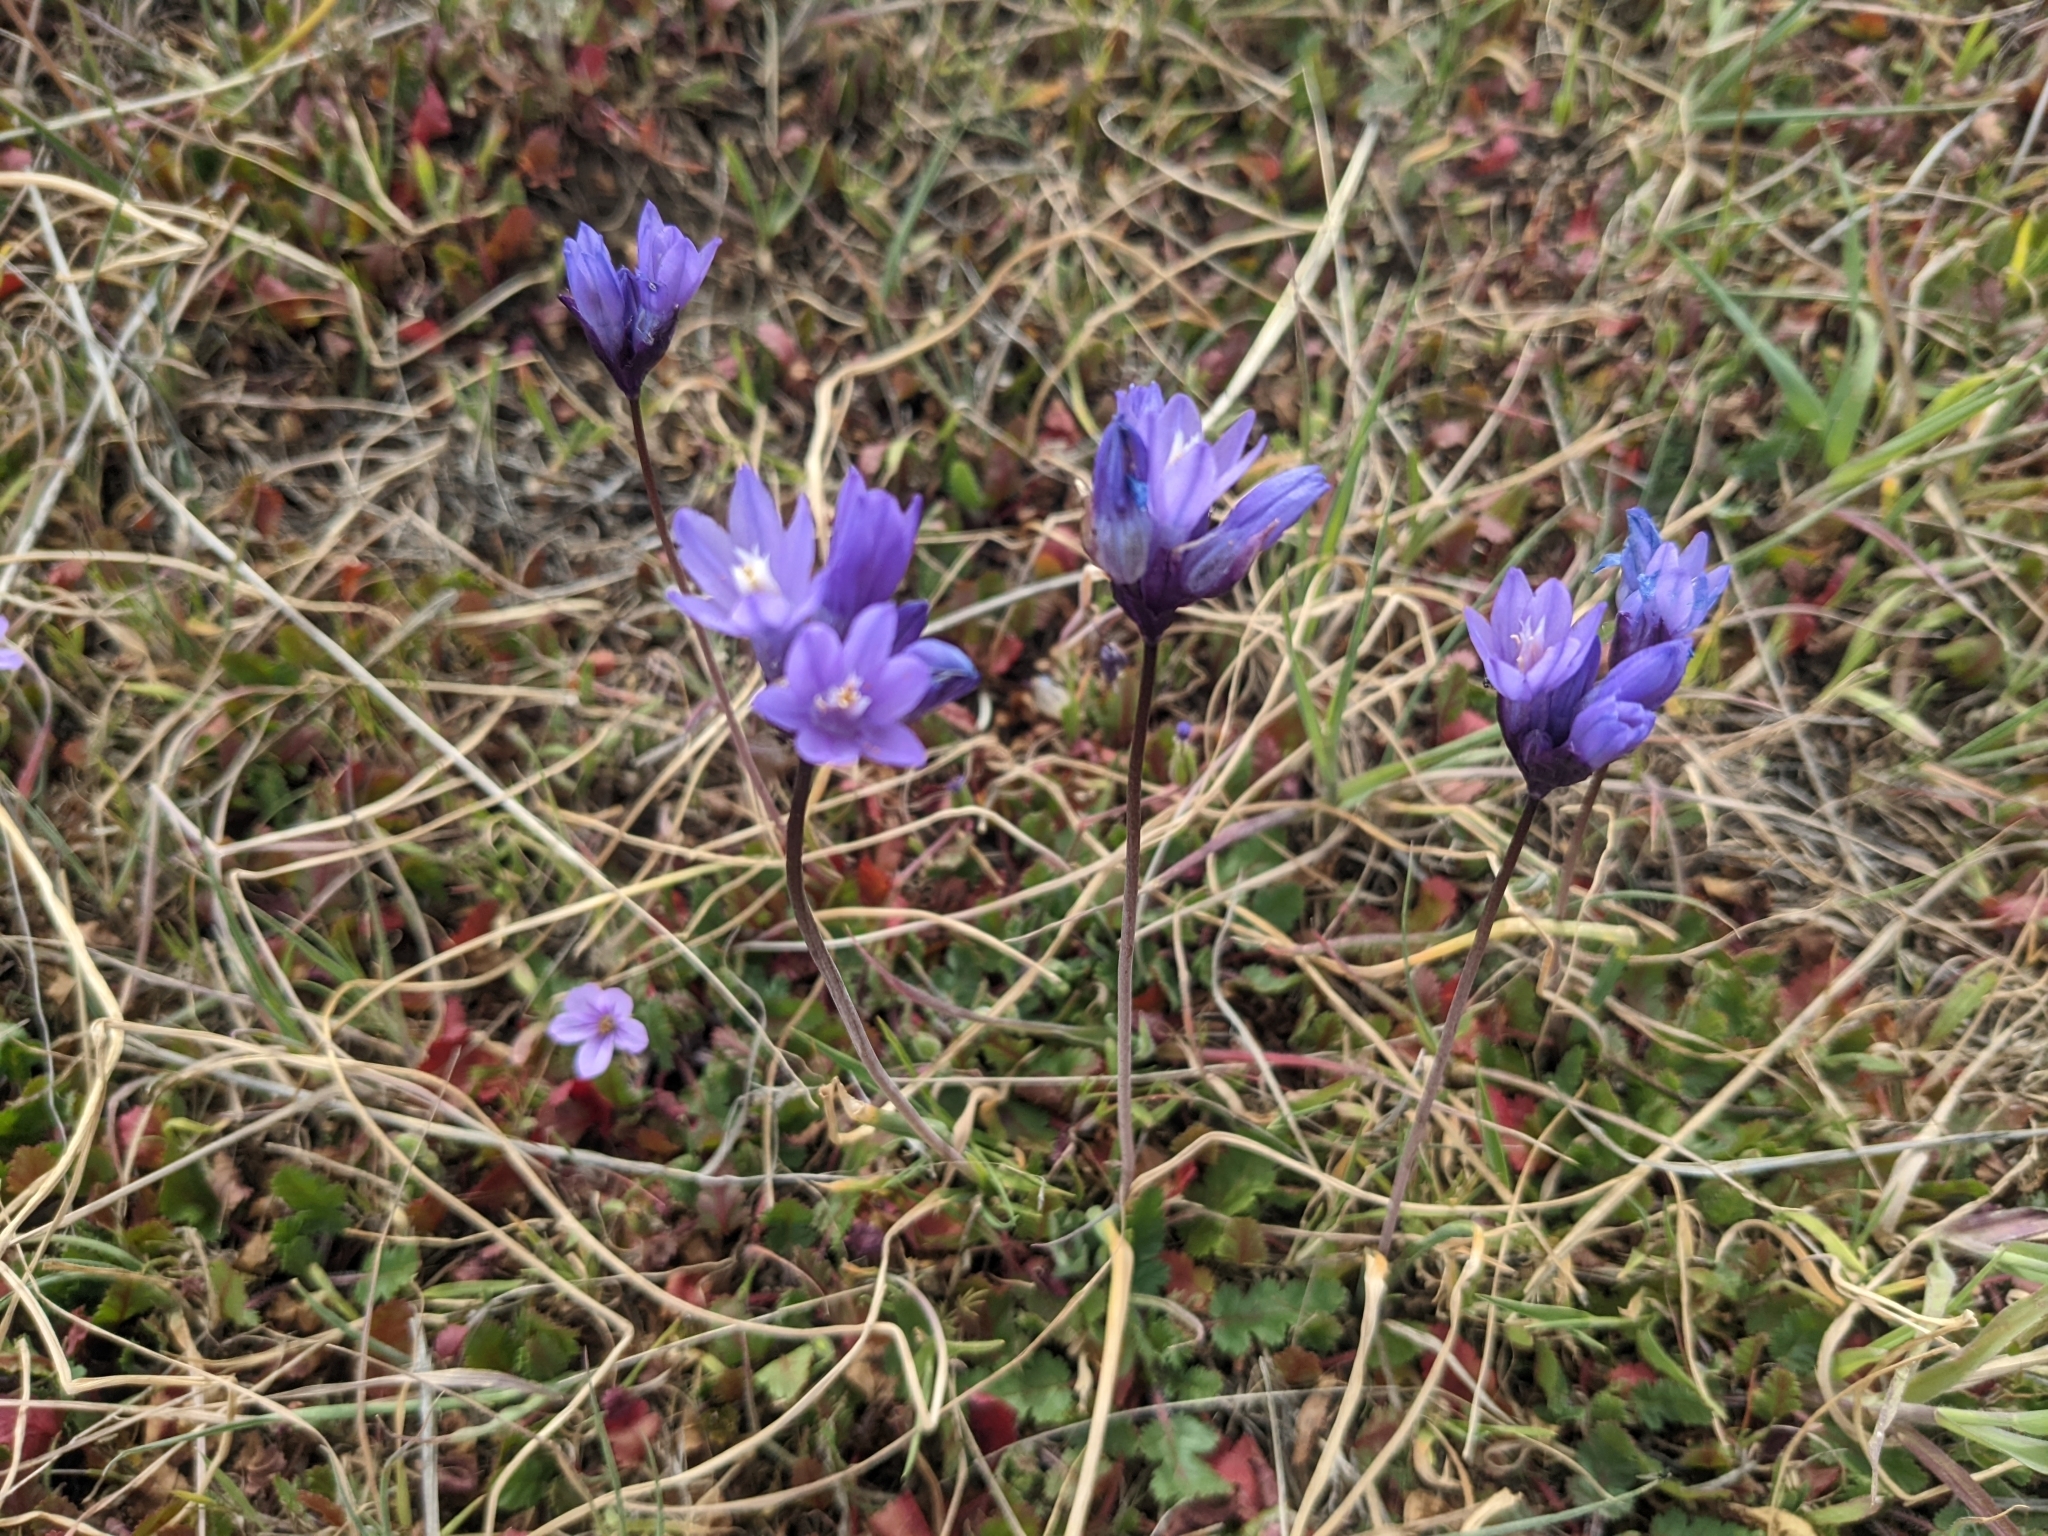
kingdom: Plantae
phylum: Tracheophyta
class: Liliopsida
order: Asparagales
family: Asparagaceae
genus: Dipterostemon
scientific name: Dipterostemon capitatus
